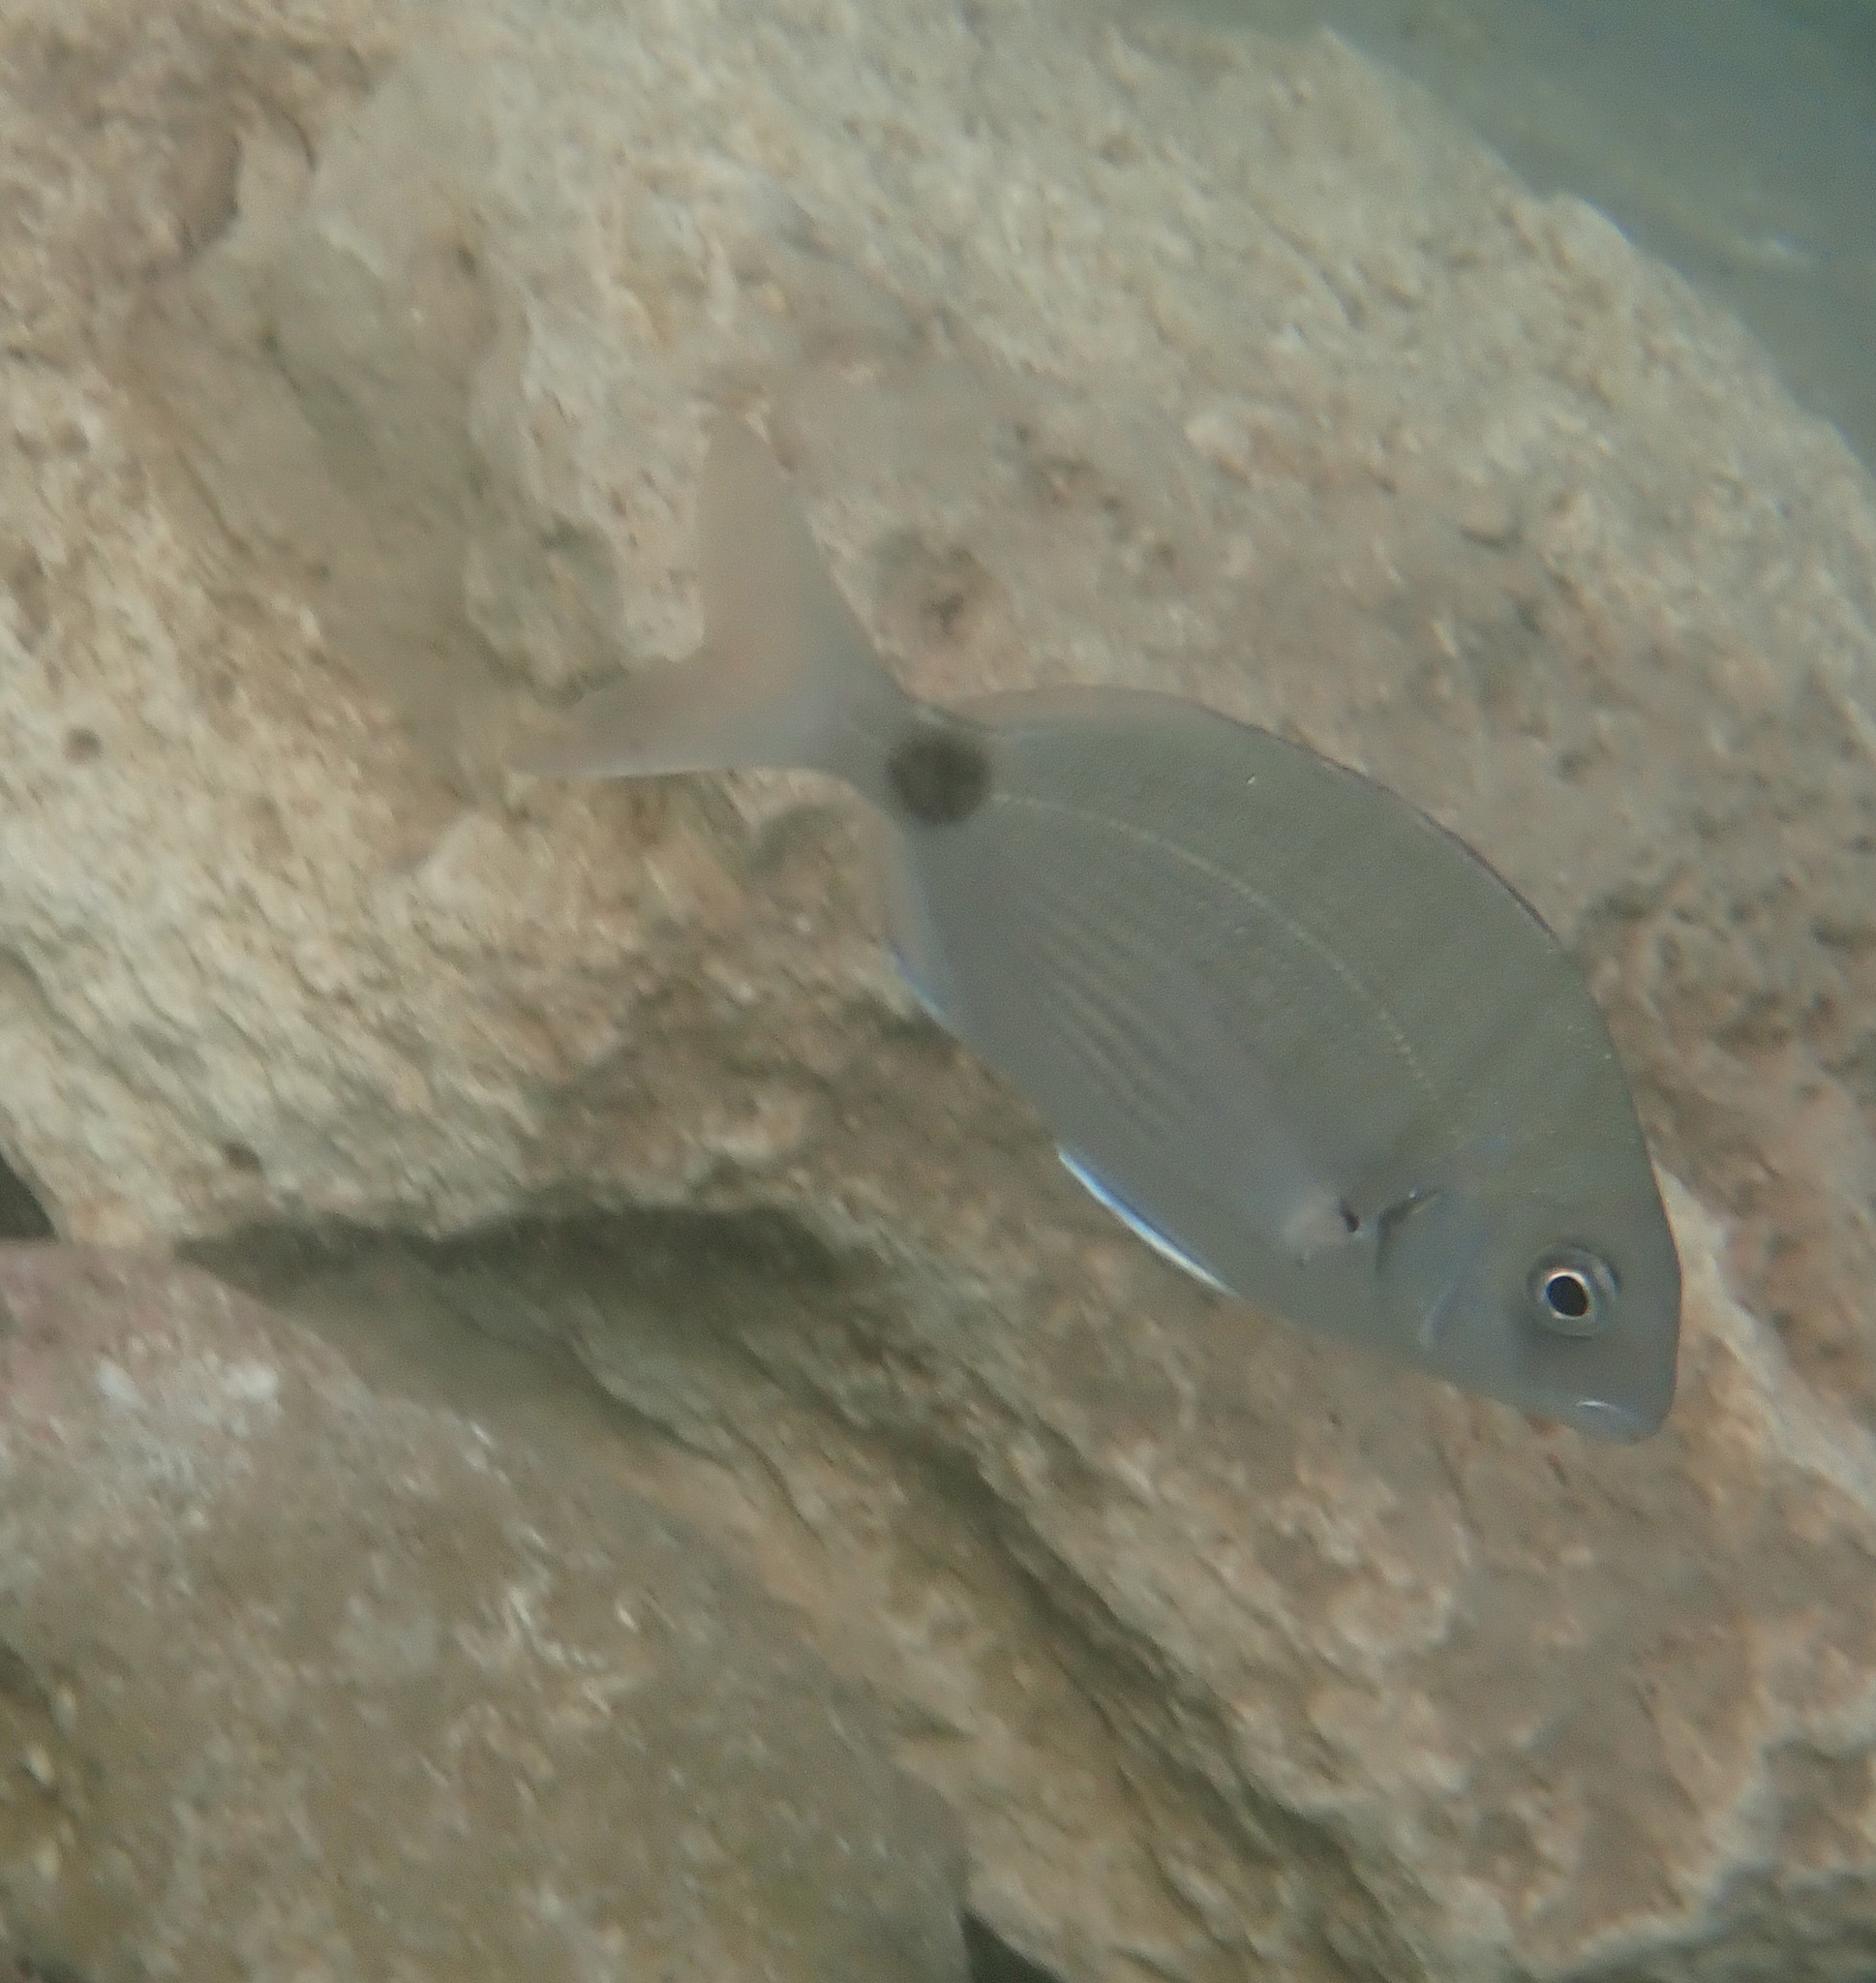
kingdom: Animalia
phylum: Chordata
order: Perciformes
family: Sparidae
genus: Diplodus
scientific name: Diplodus sargus
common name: White seabream
